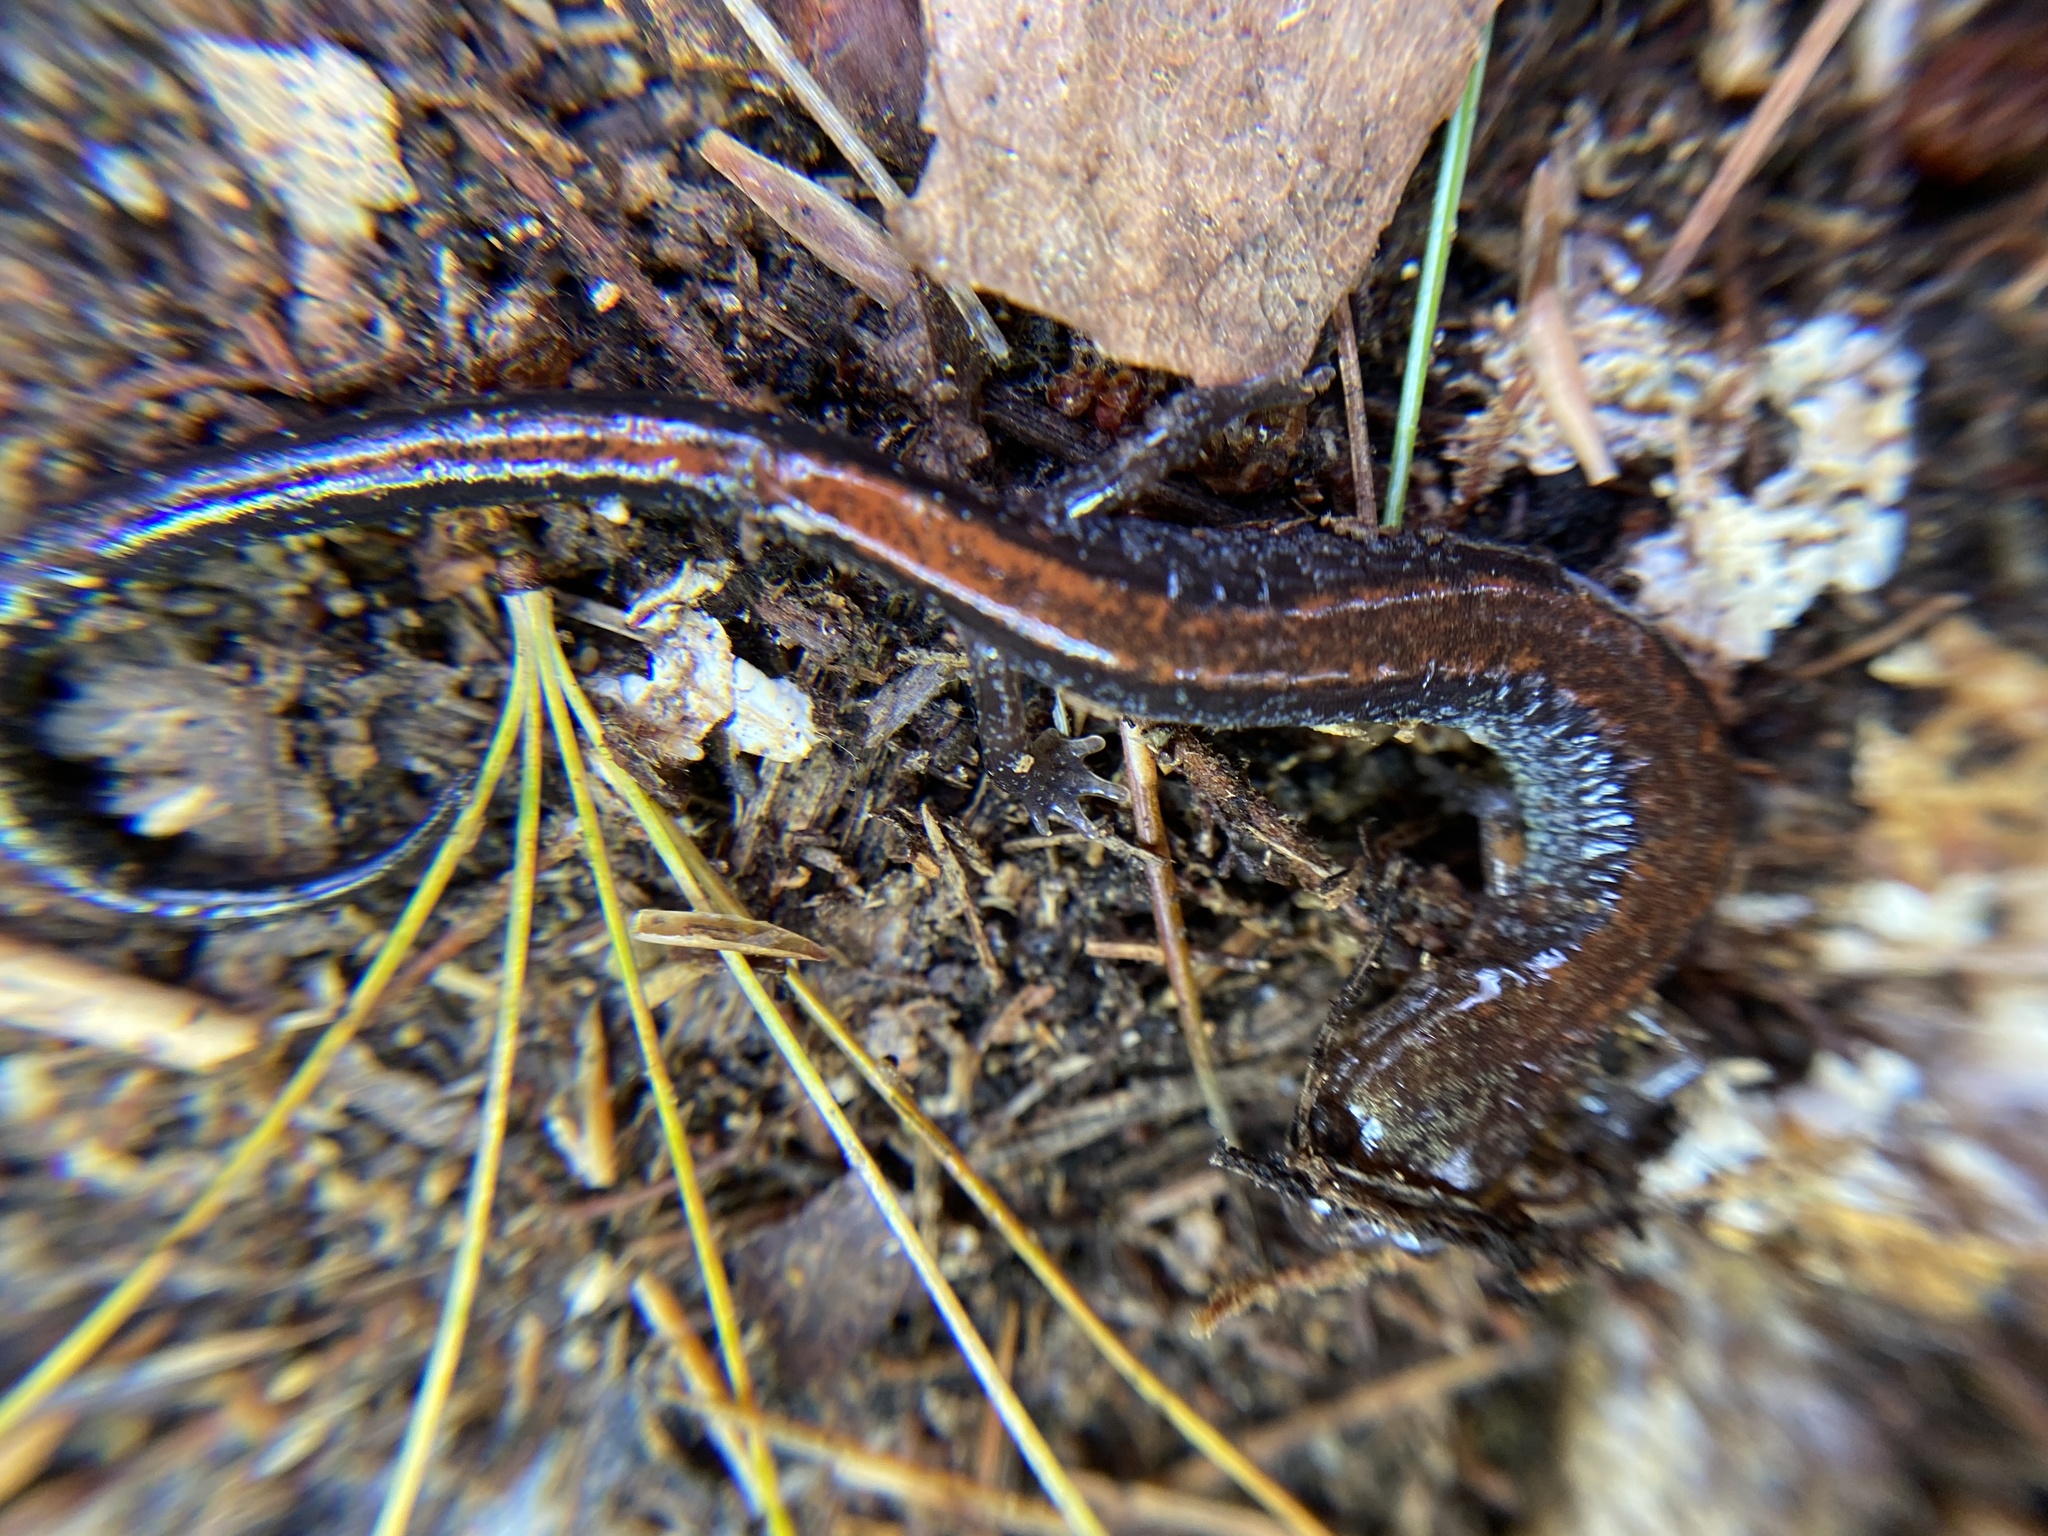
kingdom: Animalia
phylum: Chordata
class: Amphibia
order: Caudata
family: Plethodontidae
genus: Plethodon
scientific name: Plethodon cinereus
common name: Redback salamander
